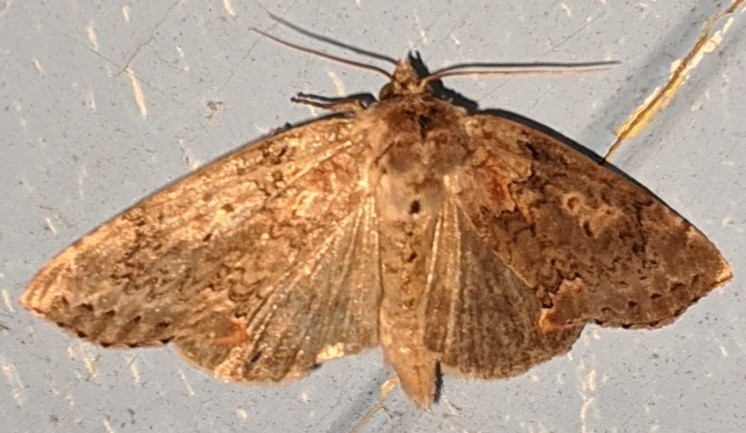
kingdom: Animalia
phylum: Arthropoda
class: Insecta
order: Lepidoptera
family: Drepanidae
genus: Pseudothyatira
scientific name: Pseudothyatira cymatophoroides
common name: Tufted thyatirid moth
